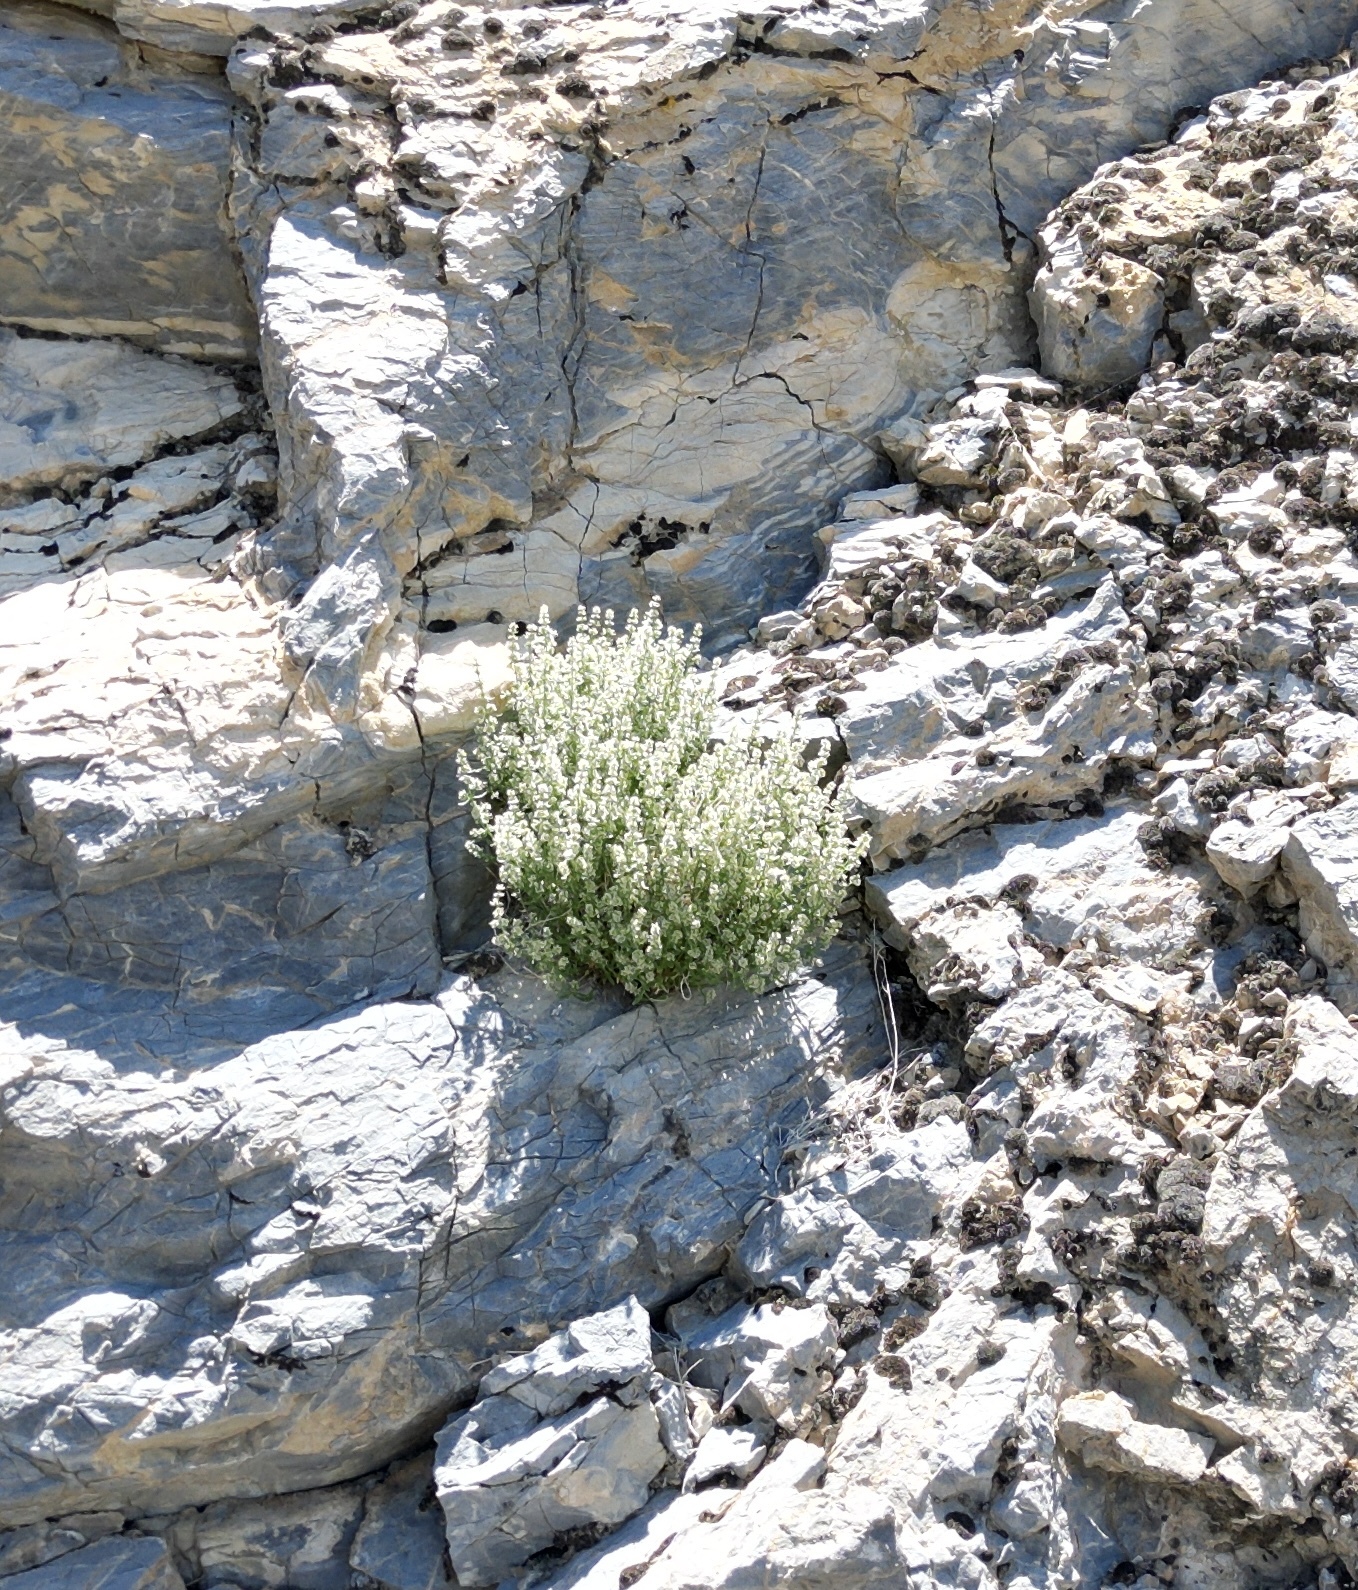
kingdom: Plantae
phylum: Tracheophyta
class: Magnoliopsida
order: Caryophyllales
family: Caryophyllaceae
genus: Scopulophila
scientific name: Scopulophila rixfordii
